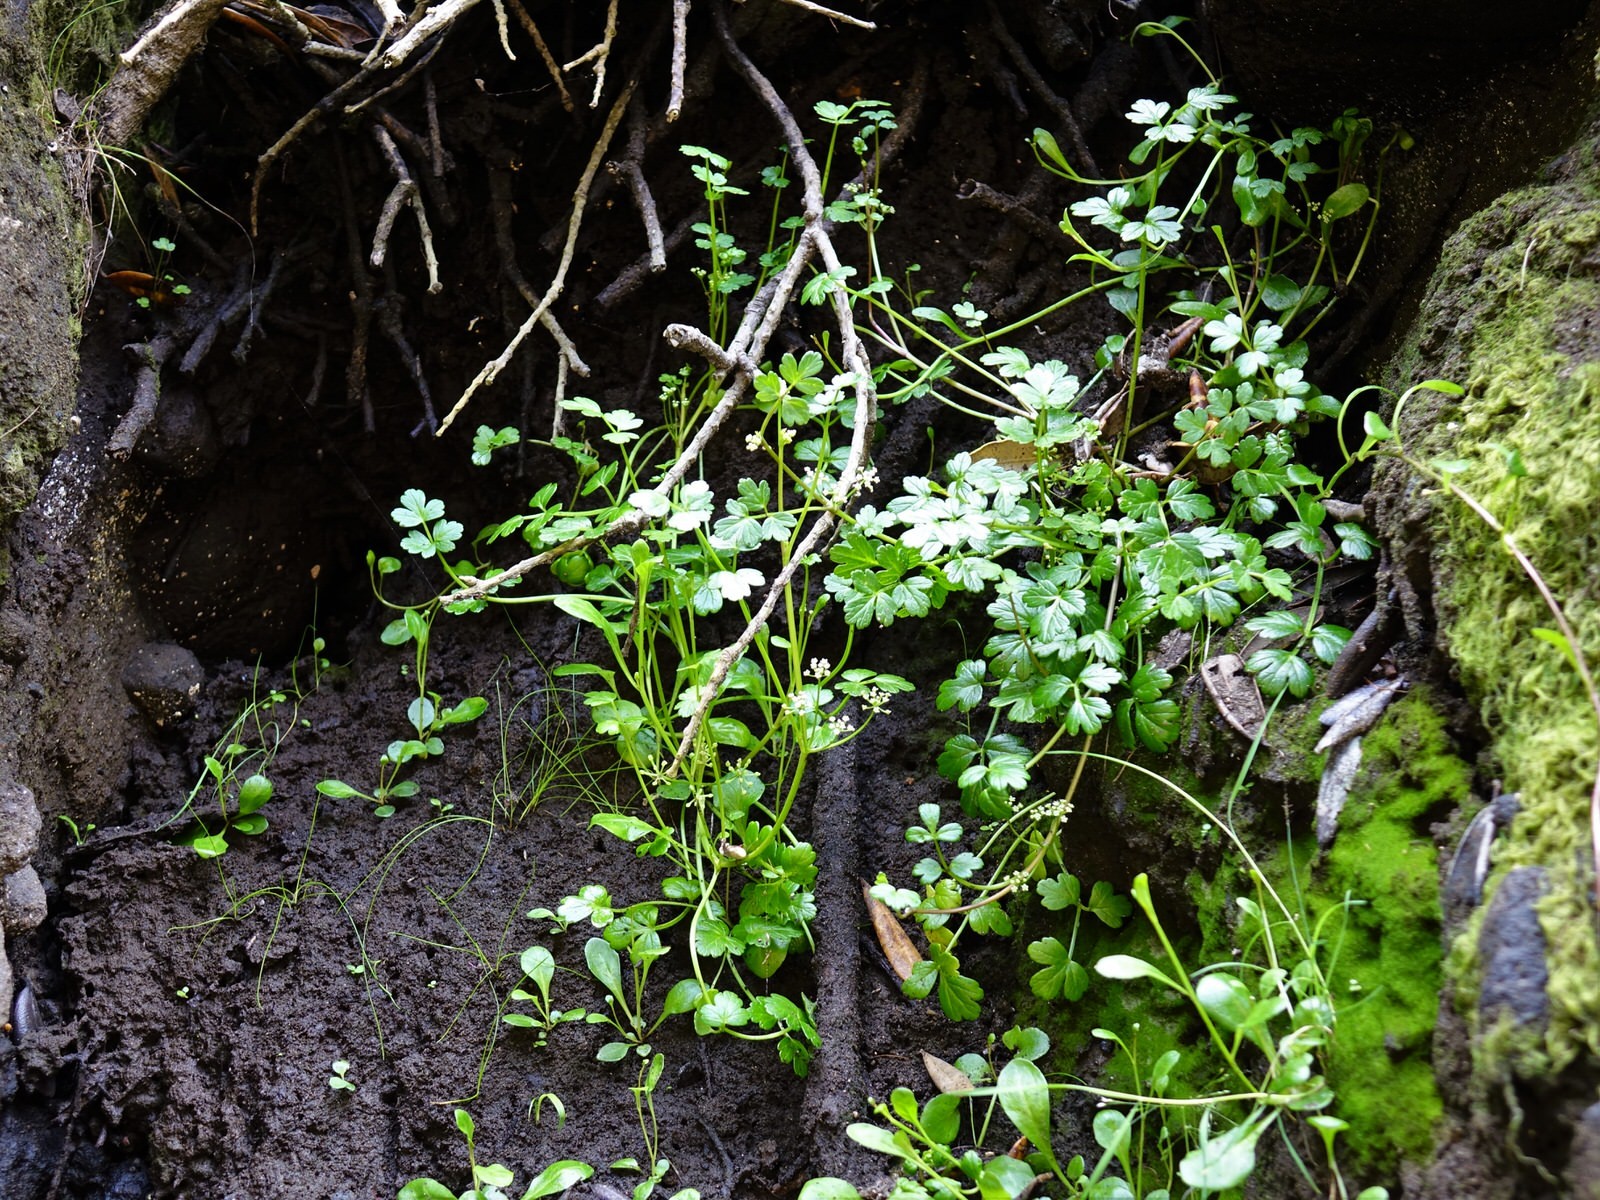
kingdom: Plantae
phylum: Tracheophyta
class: Magnoliopsida
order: Apiales
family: Apiaceae
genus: Apium
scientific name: Apium prostratum
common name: Prostrate marshwort
